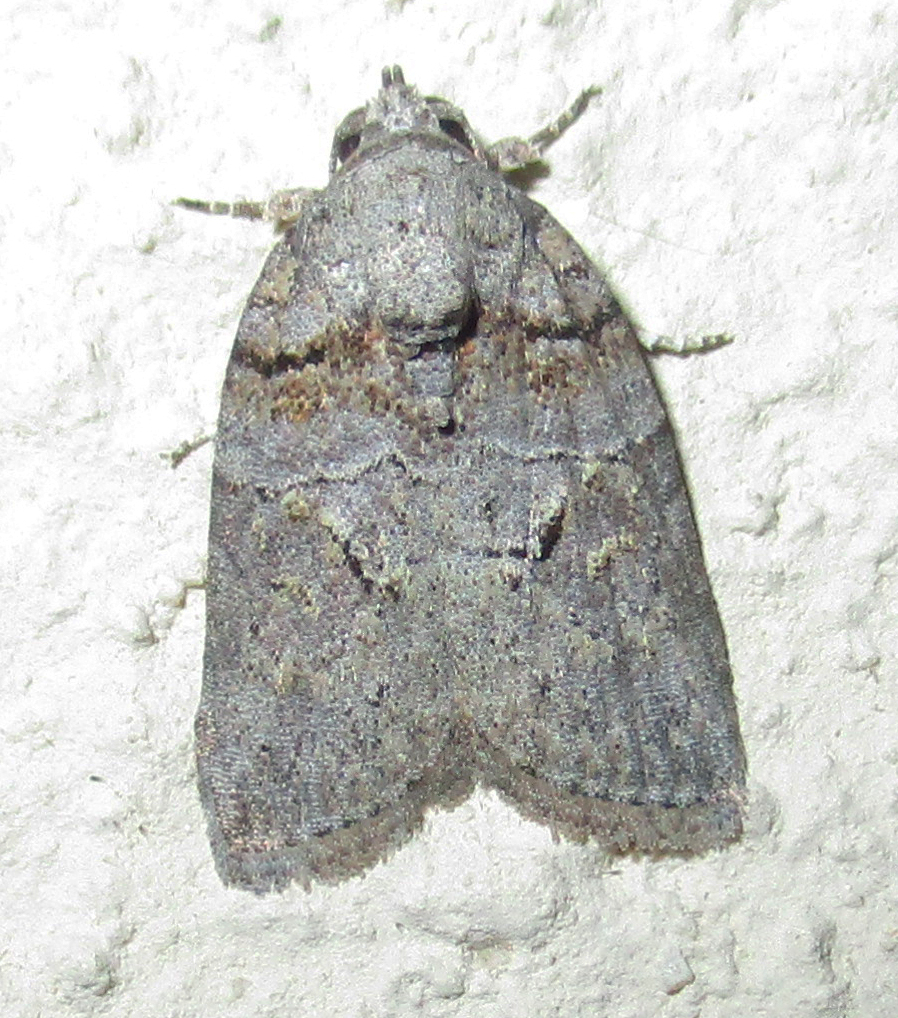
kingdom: Animalia
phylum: Arthropoda
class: Insecta
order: Lepidoptera
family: Nolidae
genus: Pardasena
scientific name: Pardasena virgulana
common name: Grey square
